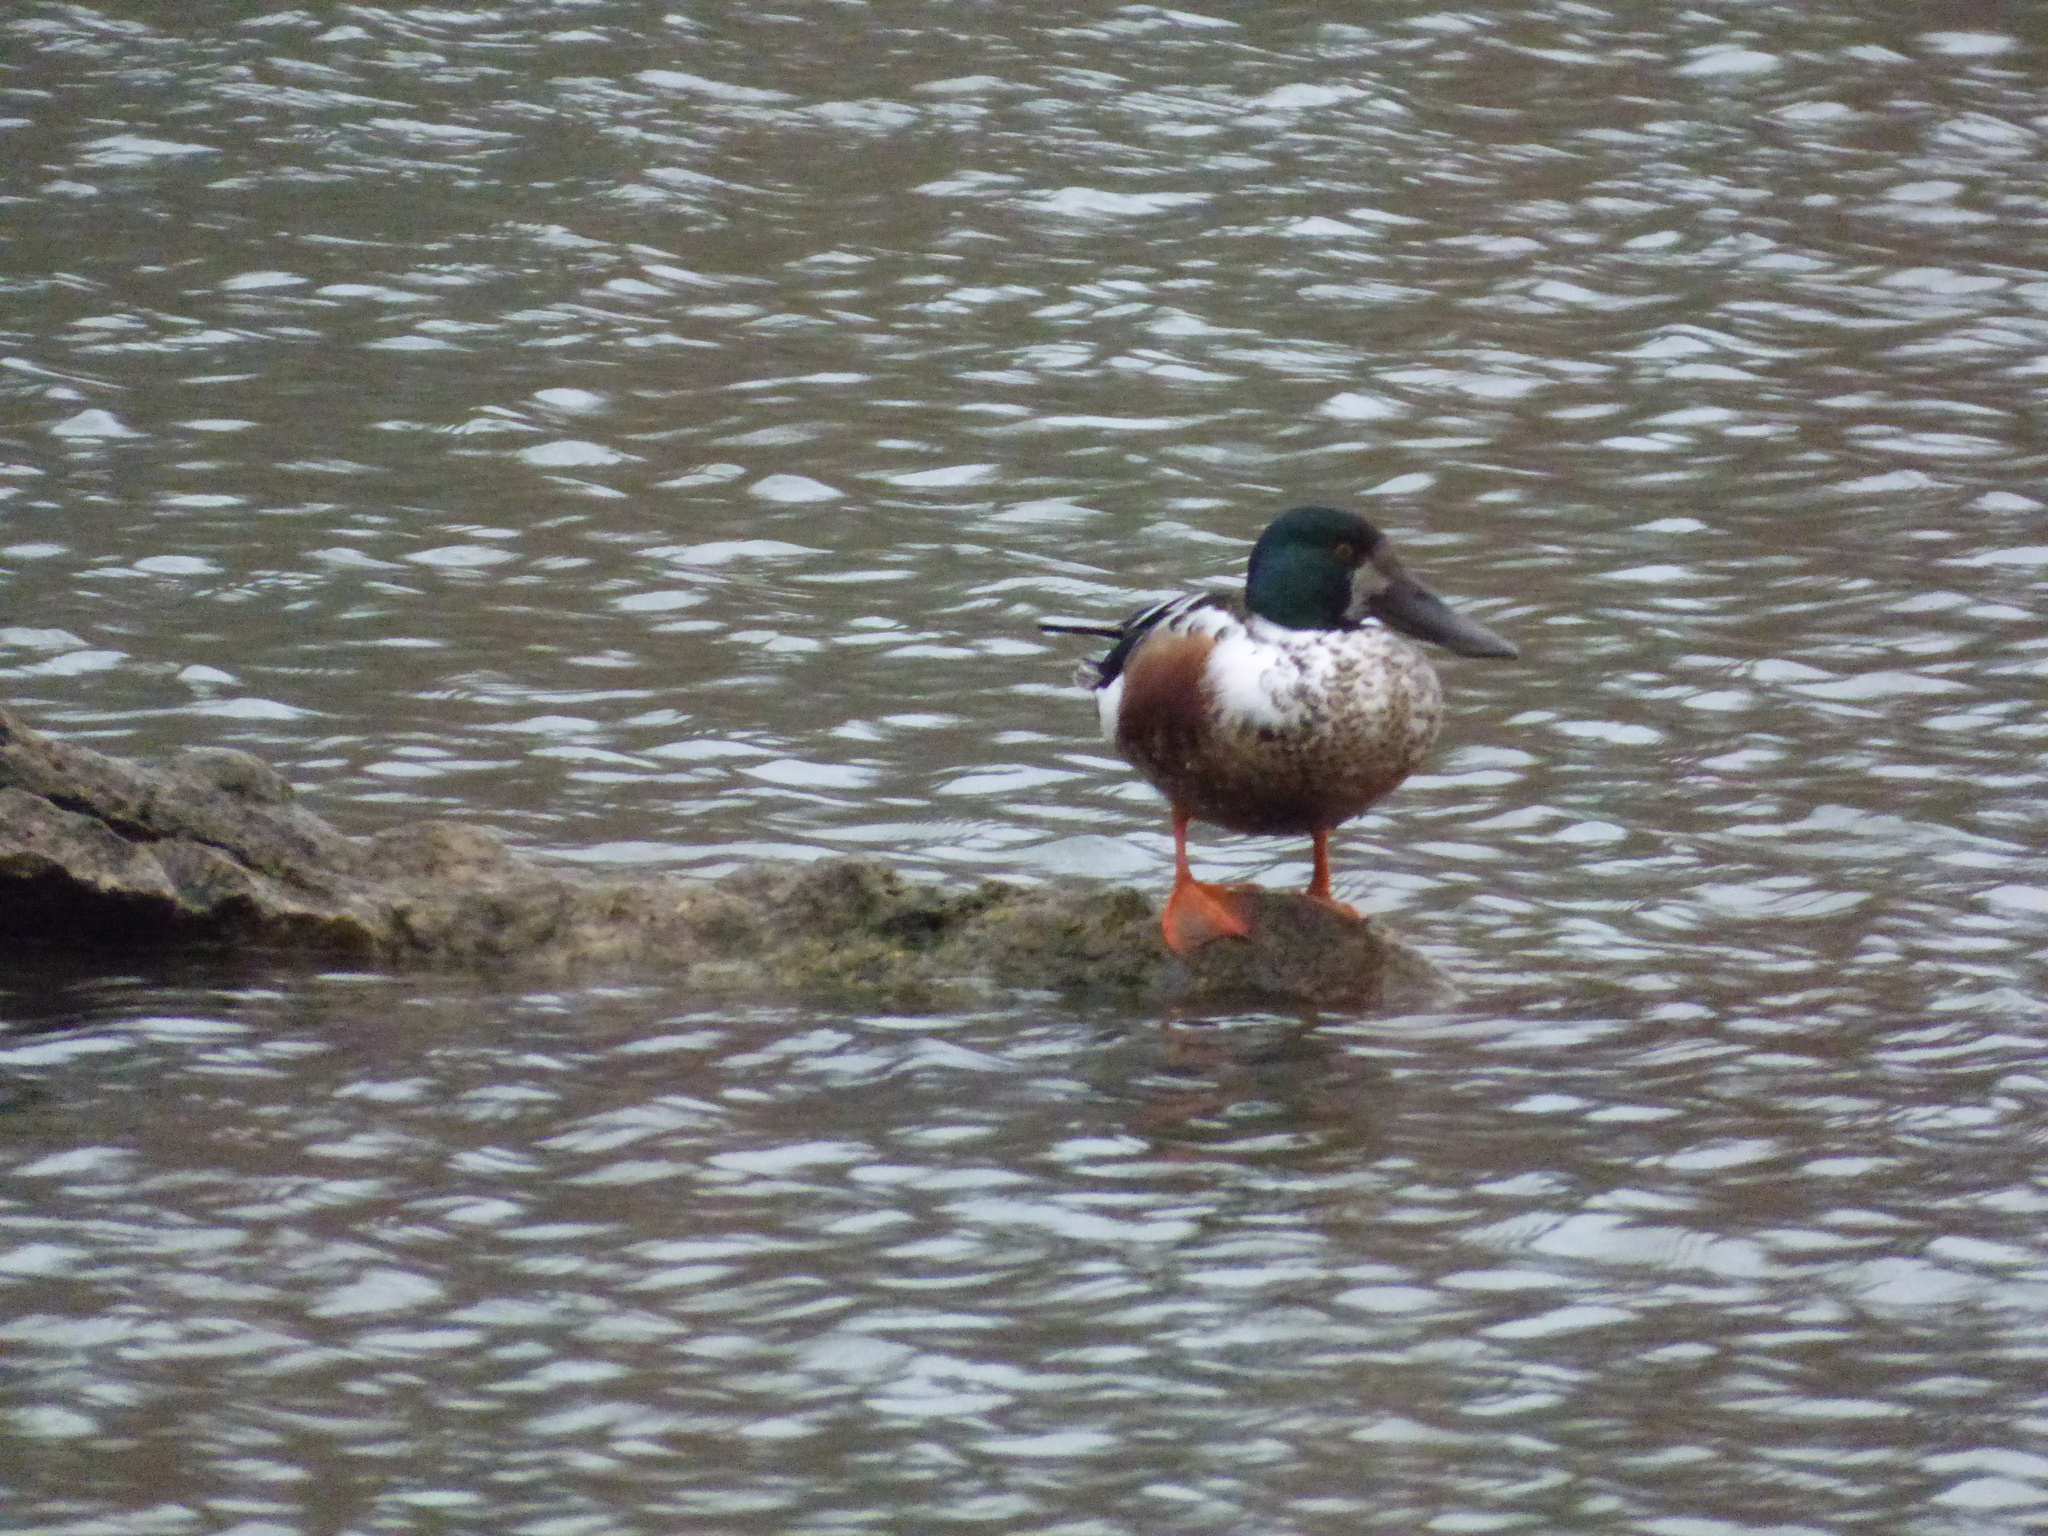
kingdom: Animalia
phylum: Chordata
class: Aves
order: Anseriformes
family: Anatidae
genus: Spatula
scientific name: Spatula clypeata
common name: Northern shoveler
